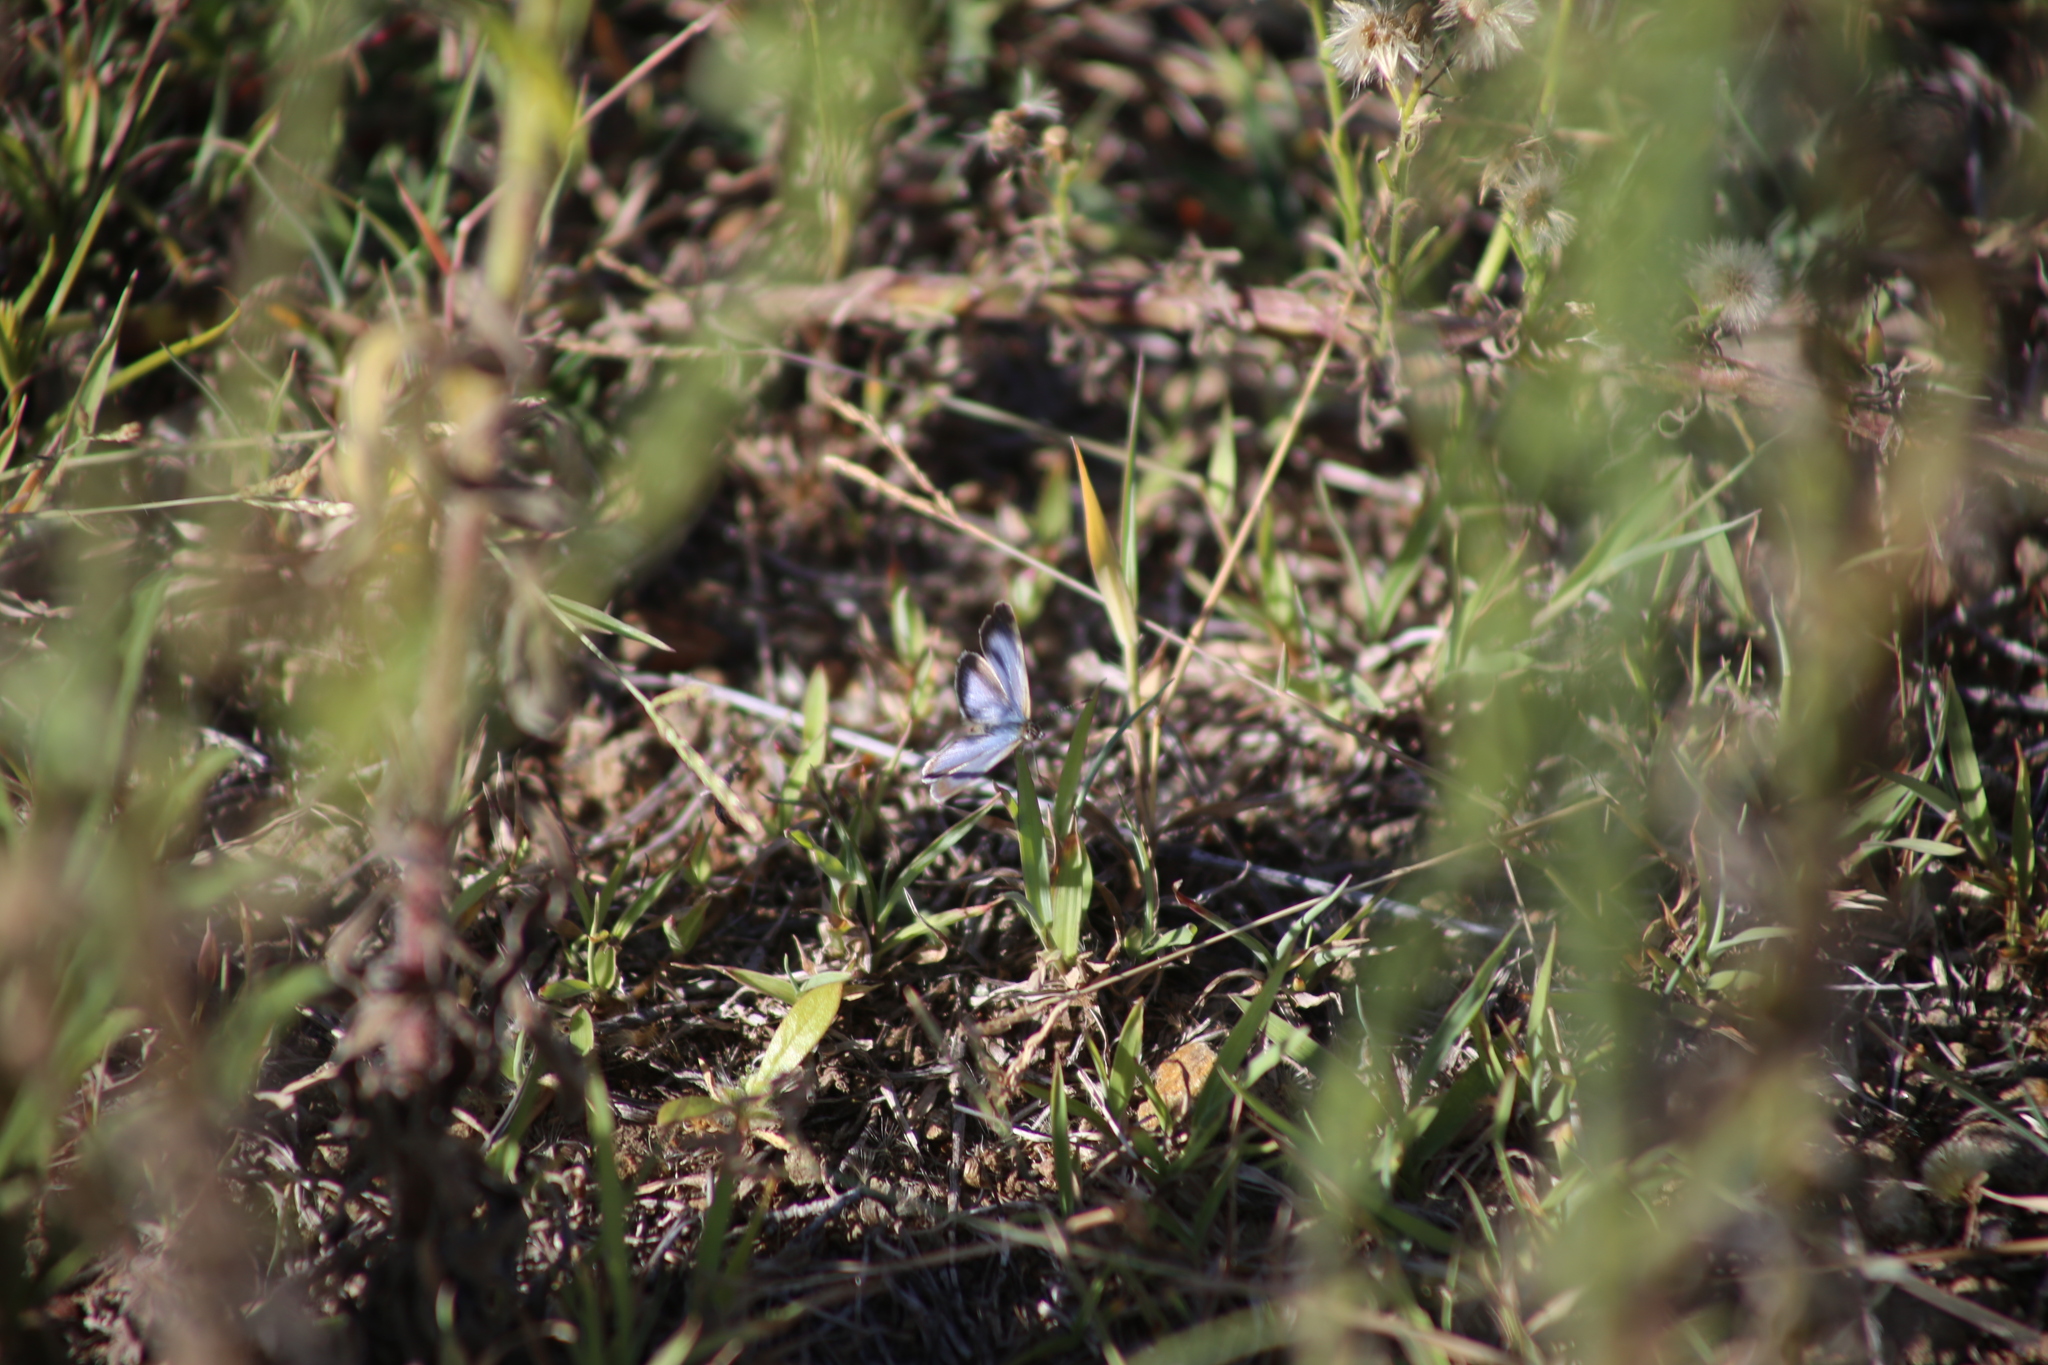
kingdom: Animalia
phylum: Arthropoda
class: Insecta
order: Lepidoptera
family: Lycaenidae
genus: Zizina
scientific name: Zizina labradus
